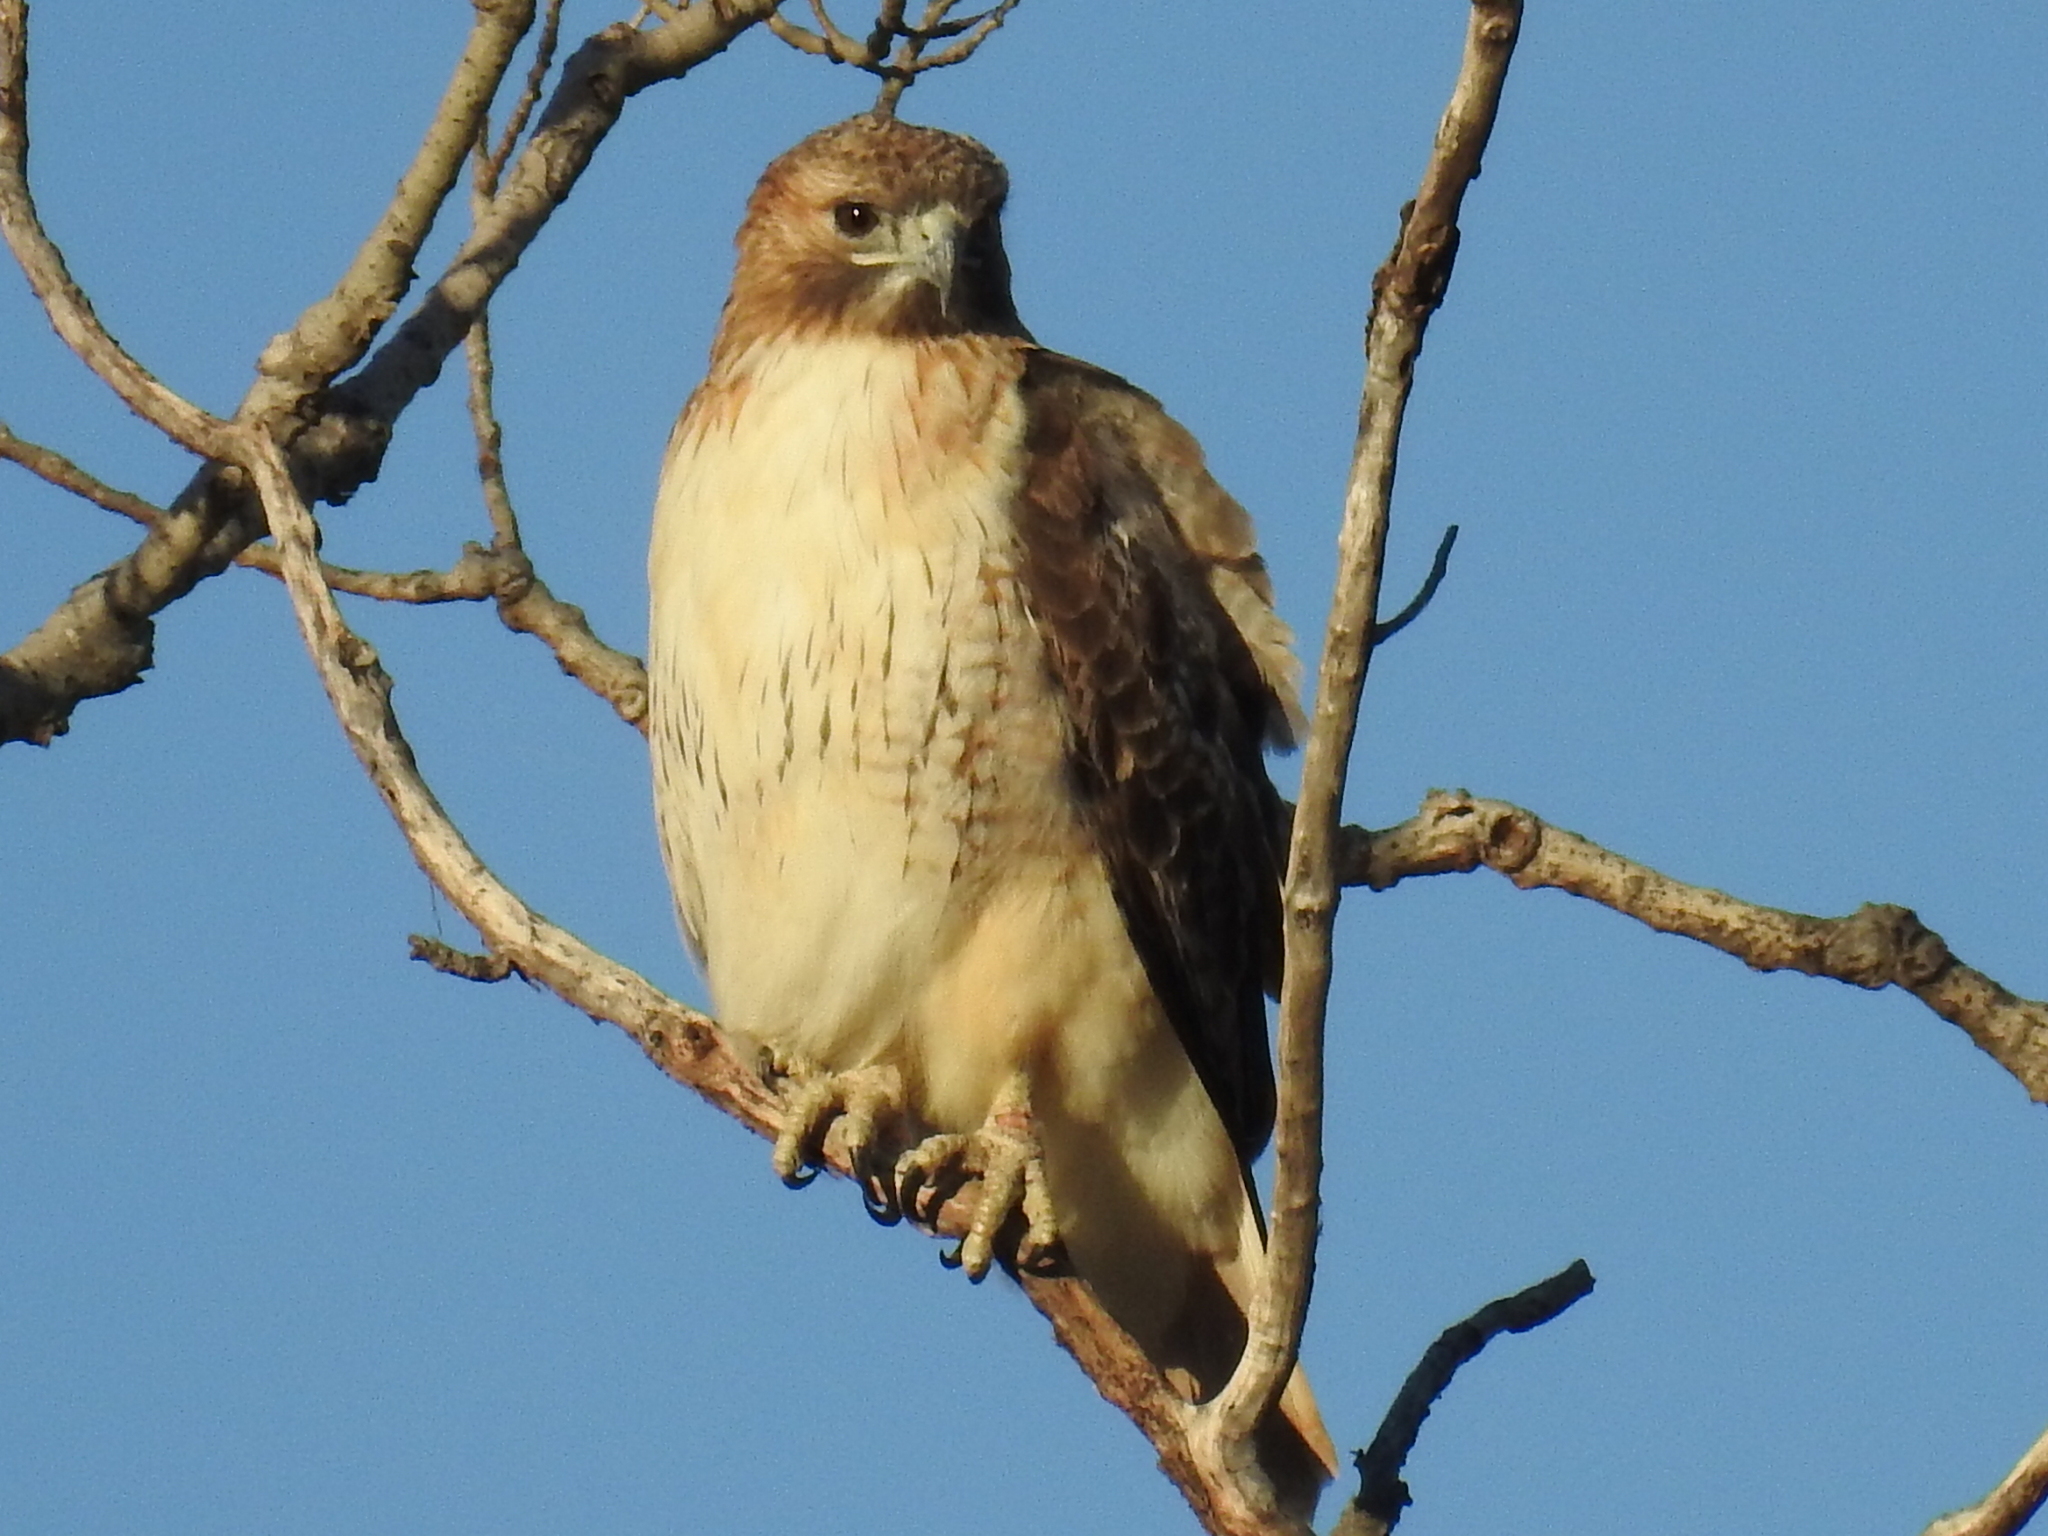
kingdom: Animalia
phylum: Chordata
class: Aves
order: Accipitriformes
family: Accipitridae
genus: Buteo
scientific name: Buteo jamaicensis
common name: Red-tailed hawk
